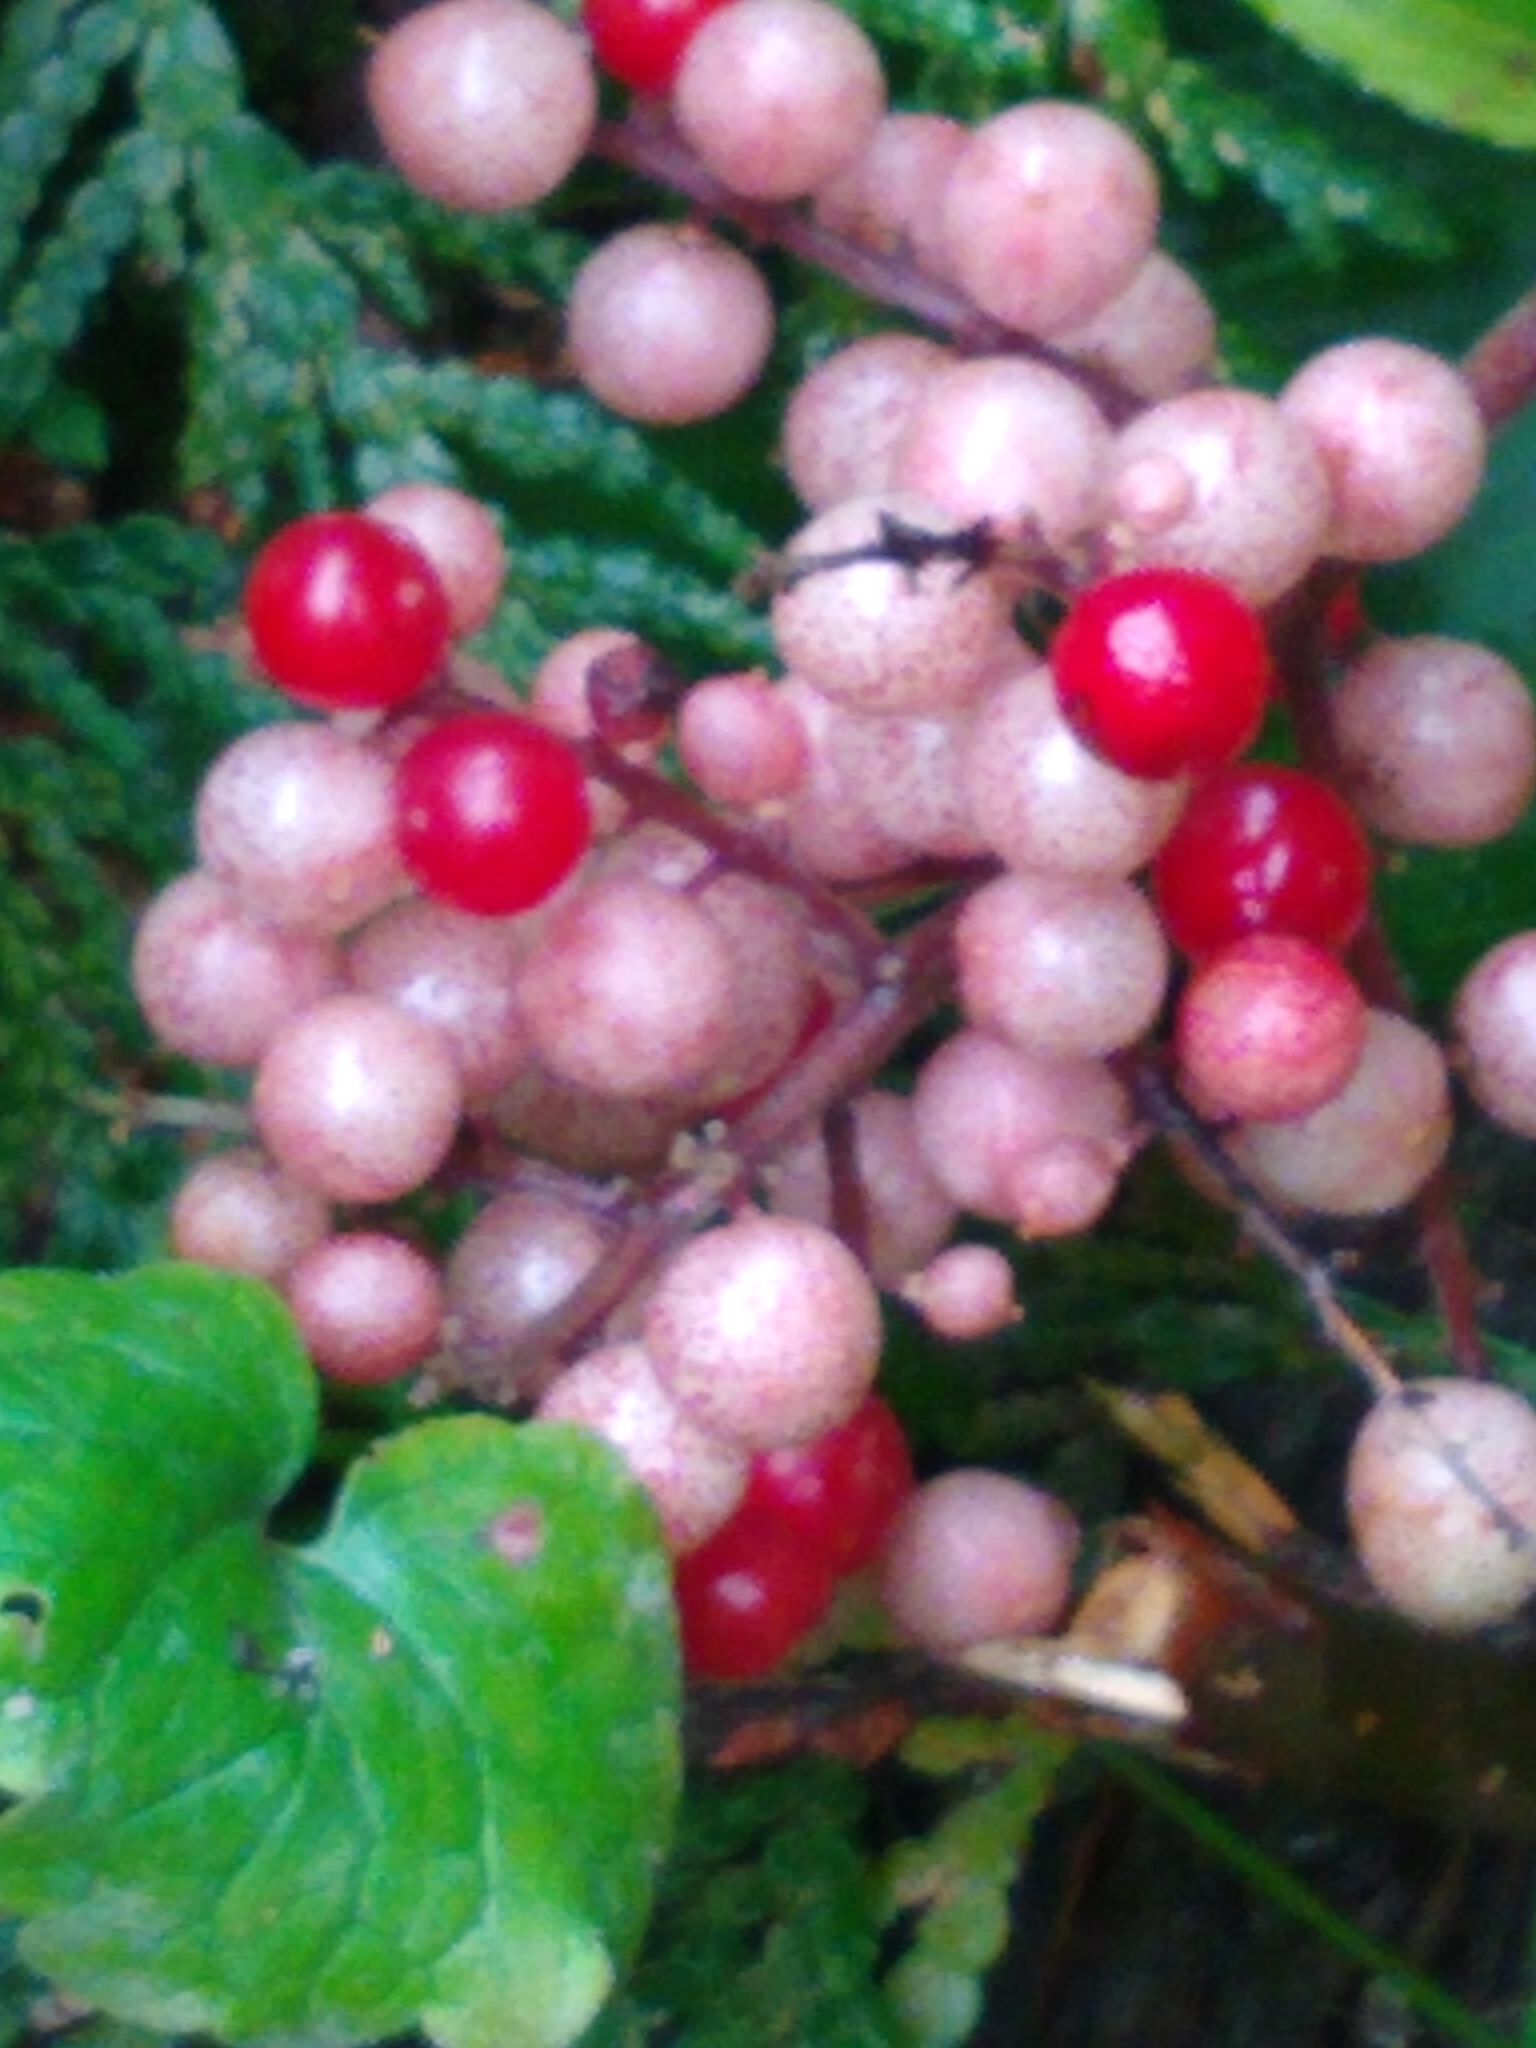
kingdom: Plantae
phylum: Tracheophyta
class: Liliopsida
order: Asparagales
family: Asparagaceae
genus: Maianthemum
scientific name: Maianthemum racemosum
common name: False spikenard
